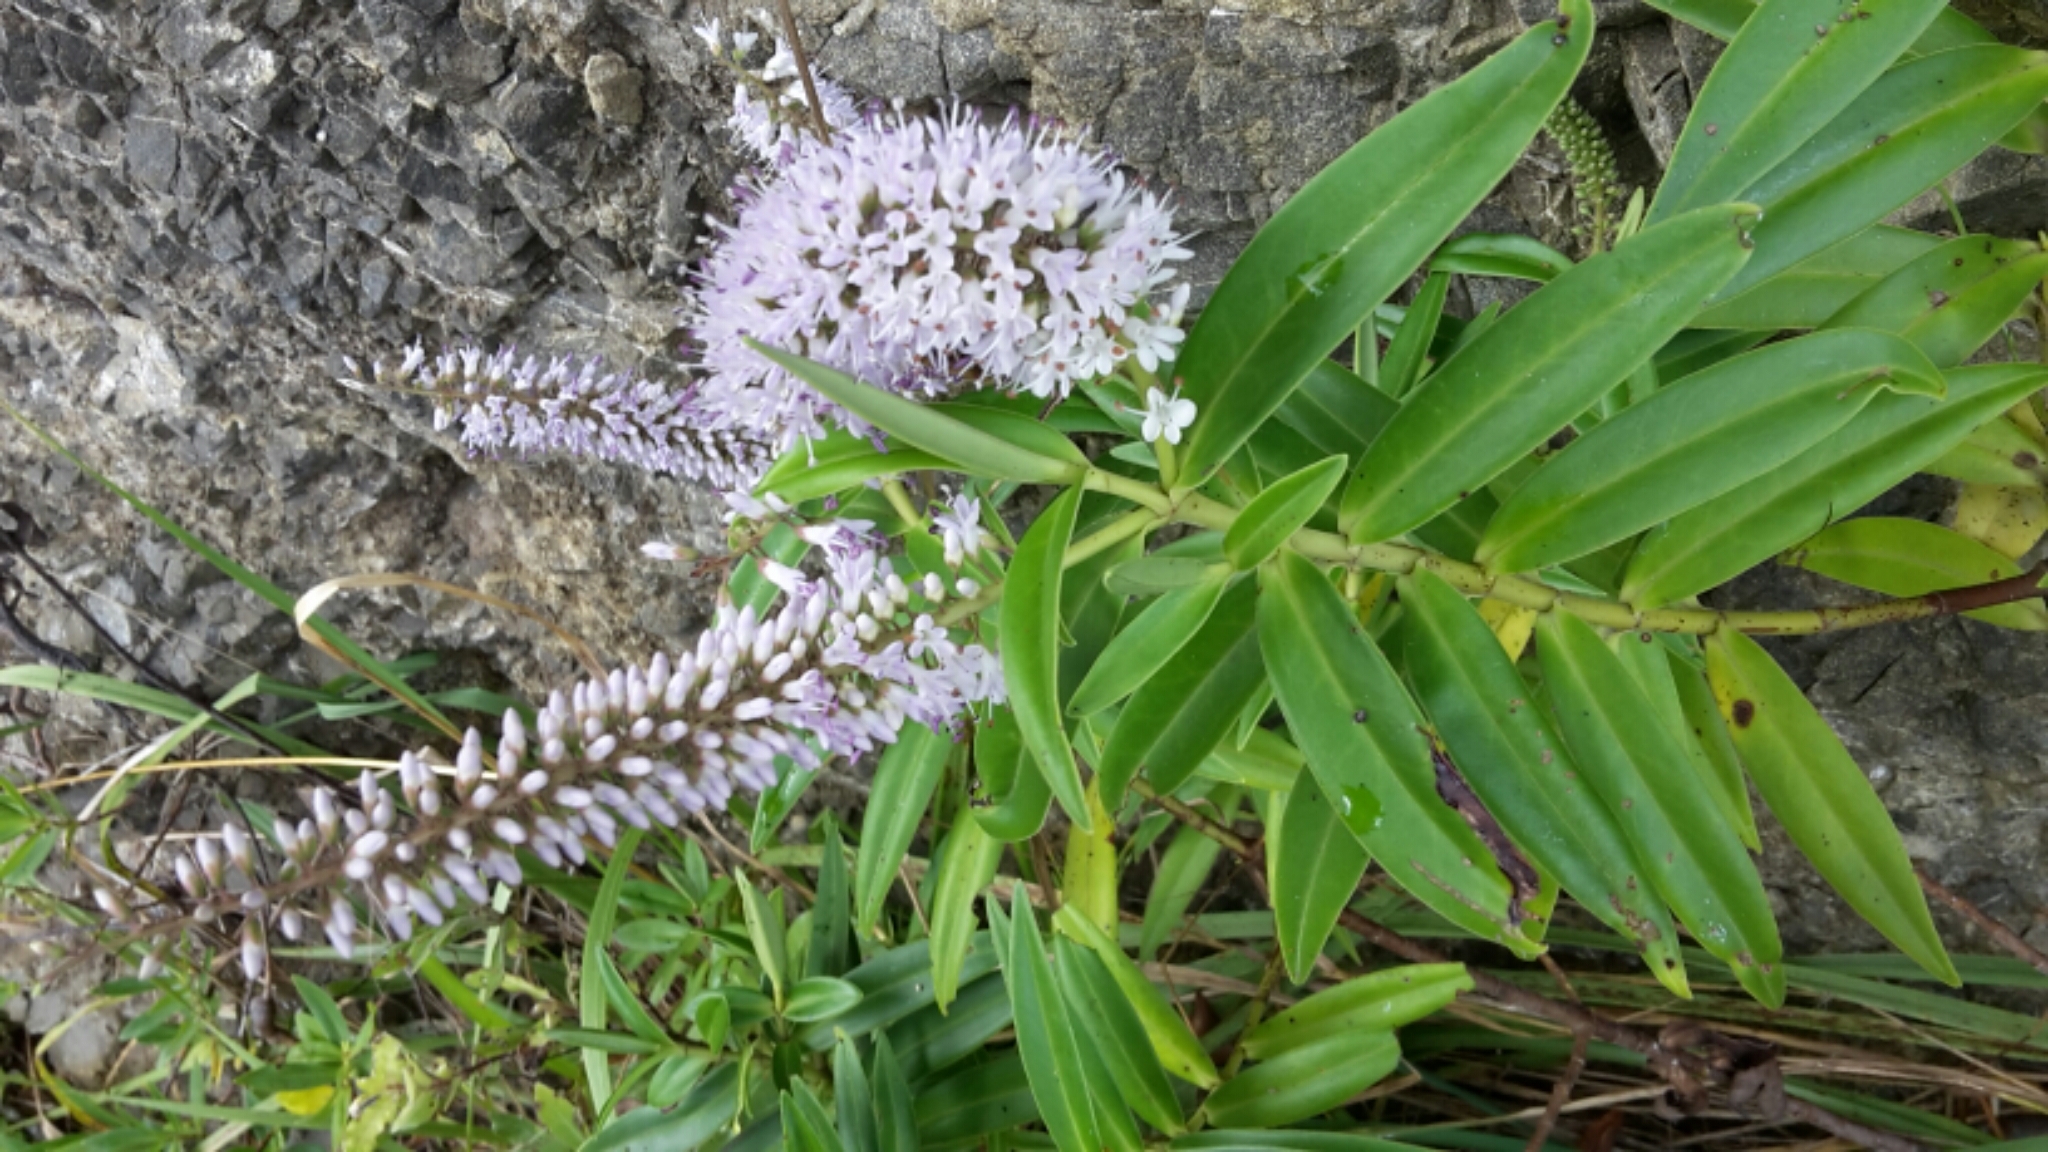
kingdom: Plantae
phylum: Tracheophyta
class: Magnoliopsida
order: Lamiales
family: Plantaginaceae
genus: Veronica
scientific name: Veronica stricta
